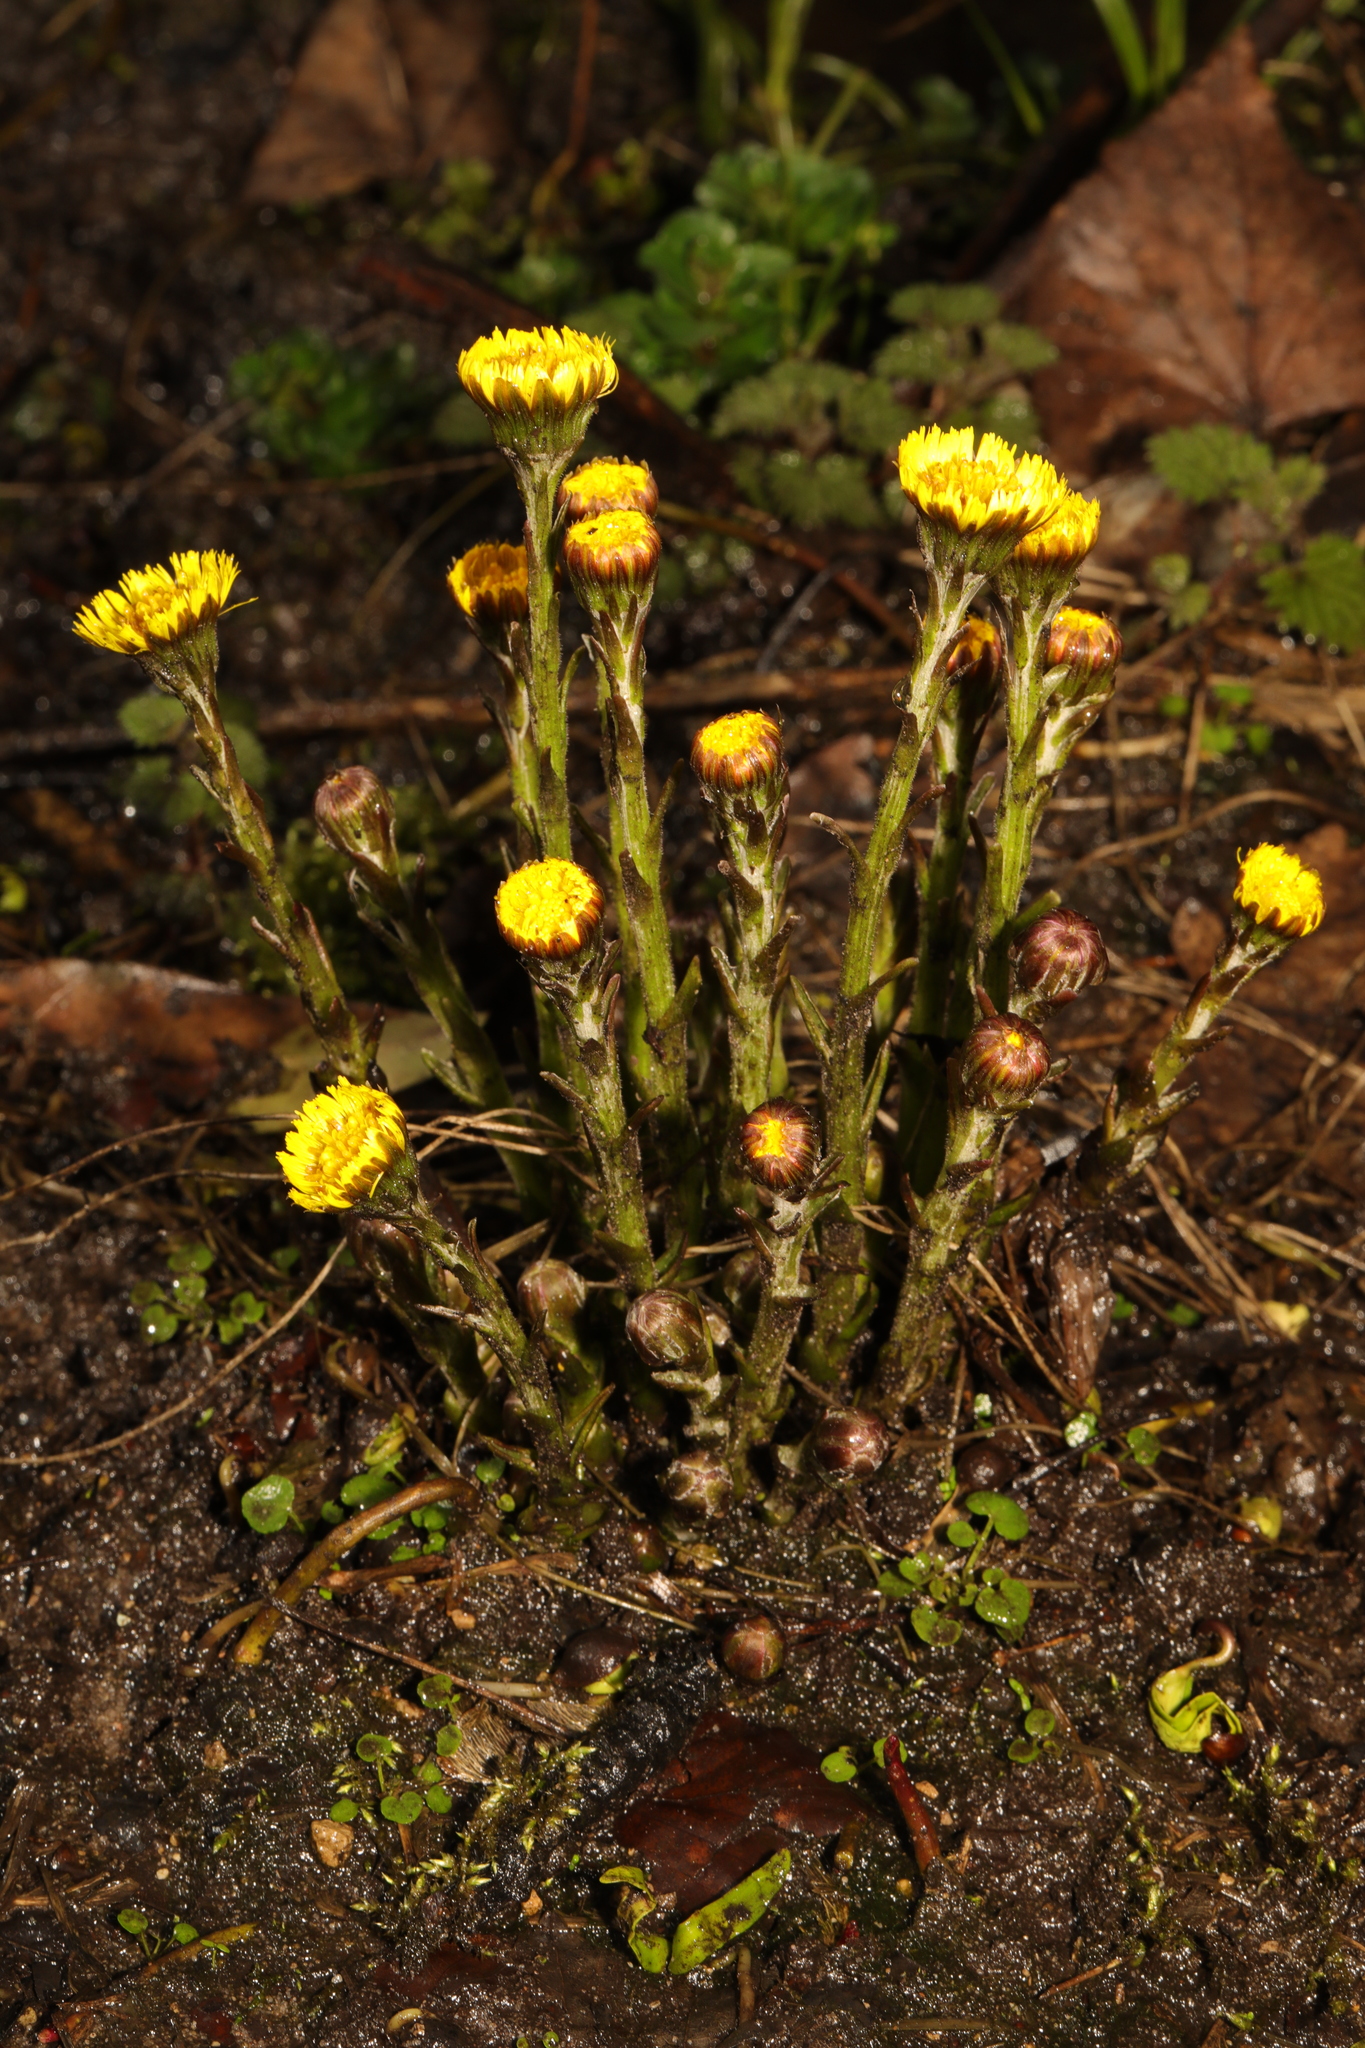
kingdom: Plantae
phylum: Tracheophyta
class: Magnoliopsida
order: Asterales
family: Asteraceae
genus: Tussilago
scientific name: Tussilago farfara
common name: Coltsfoot
